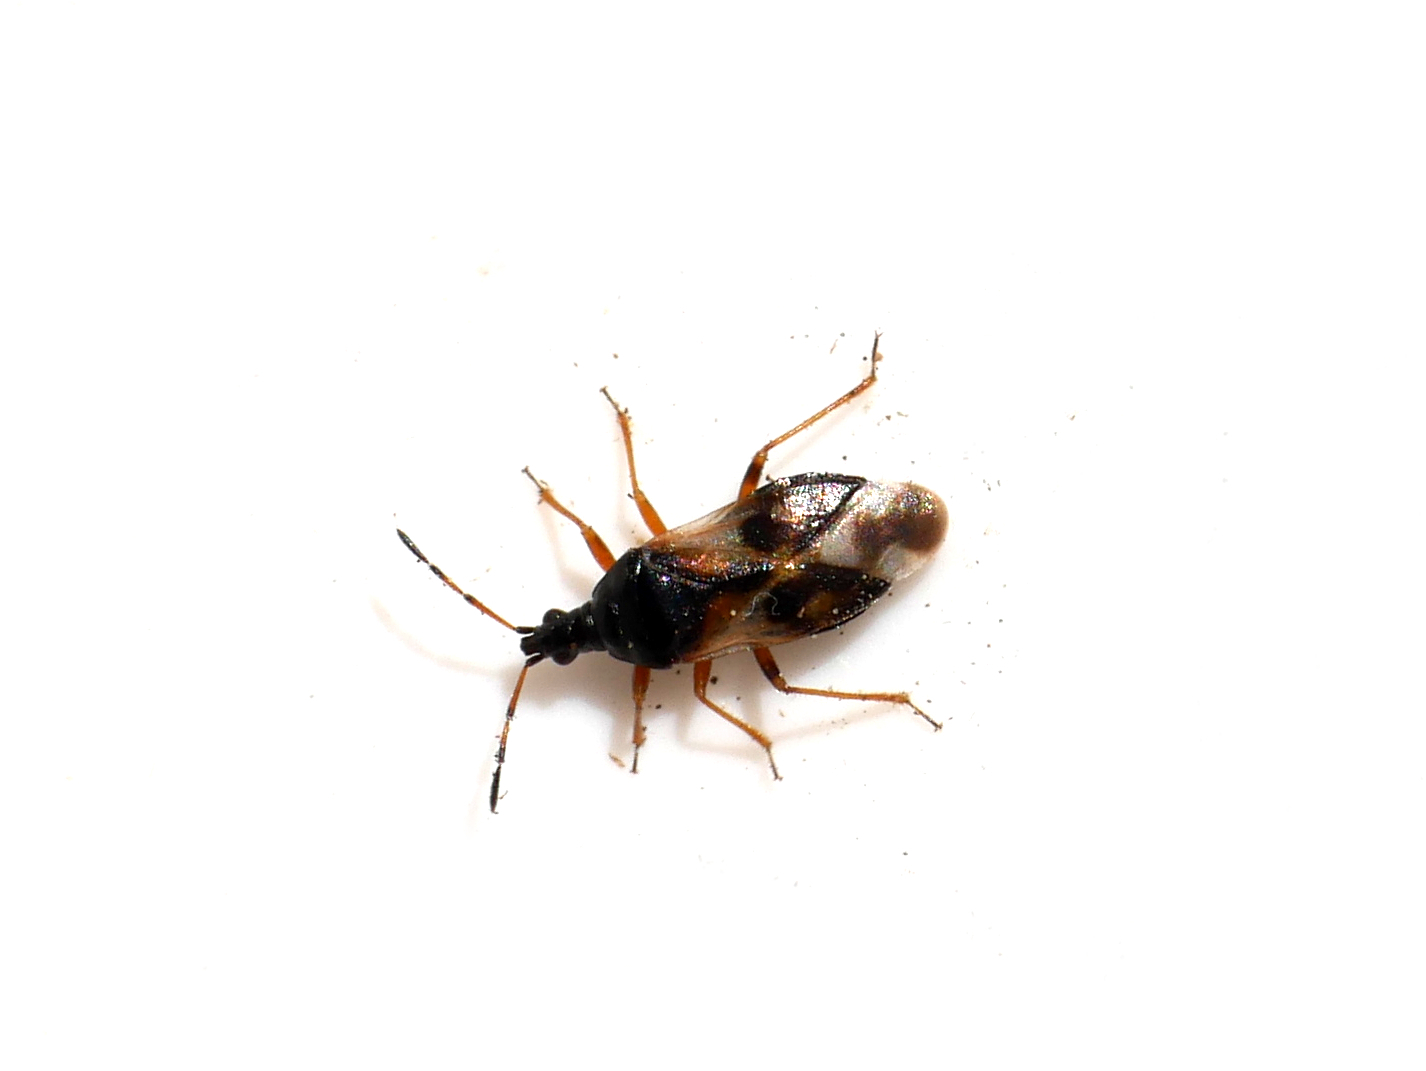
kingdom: Animalia
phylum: Arthropoda
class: Insecta
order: Hemiptera
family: Anthocoridae
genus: Anthocoris
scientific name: Anthocoris nemorum
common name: Minute pirate bug
